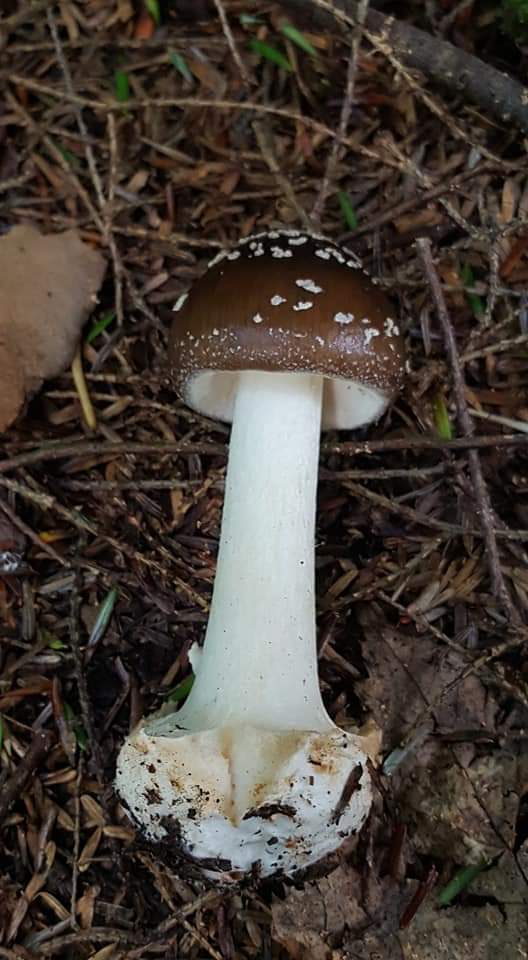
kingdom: Fungi
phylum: Basidiomycota
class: Agaricomycetes
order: Agaricales
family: Amanitaceae
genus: Amanita
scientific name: Amanita brunnescens
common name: Brown american star-footed amanita
